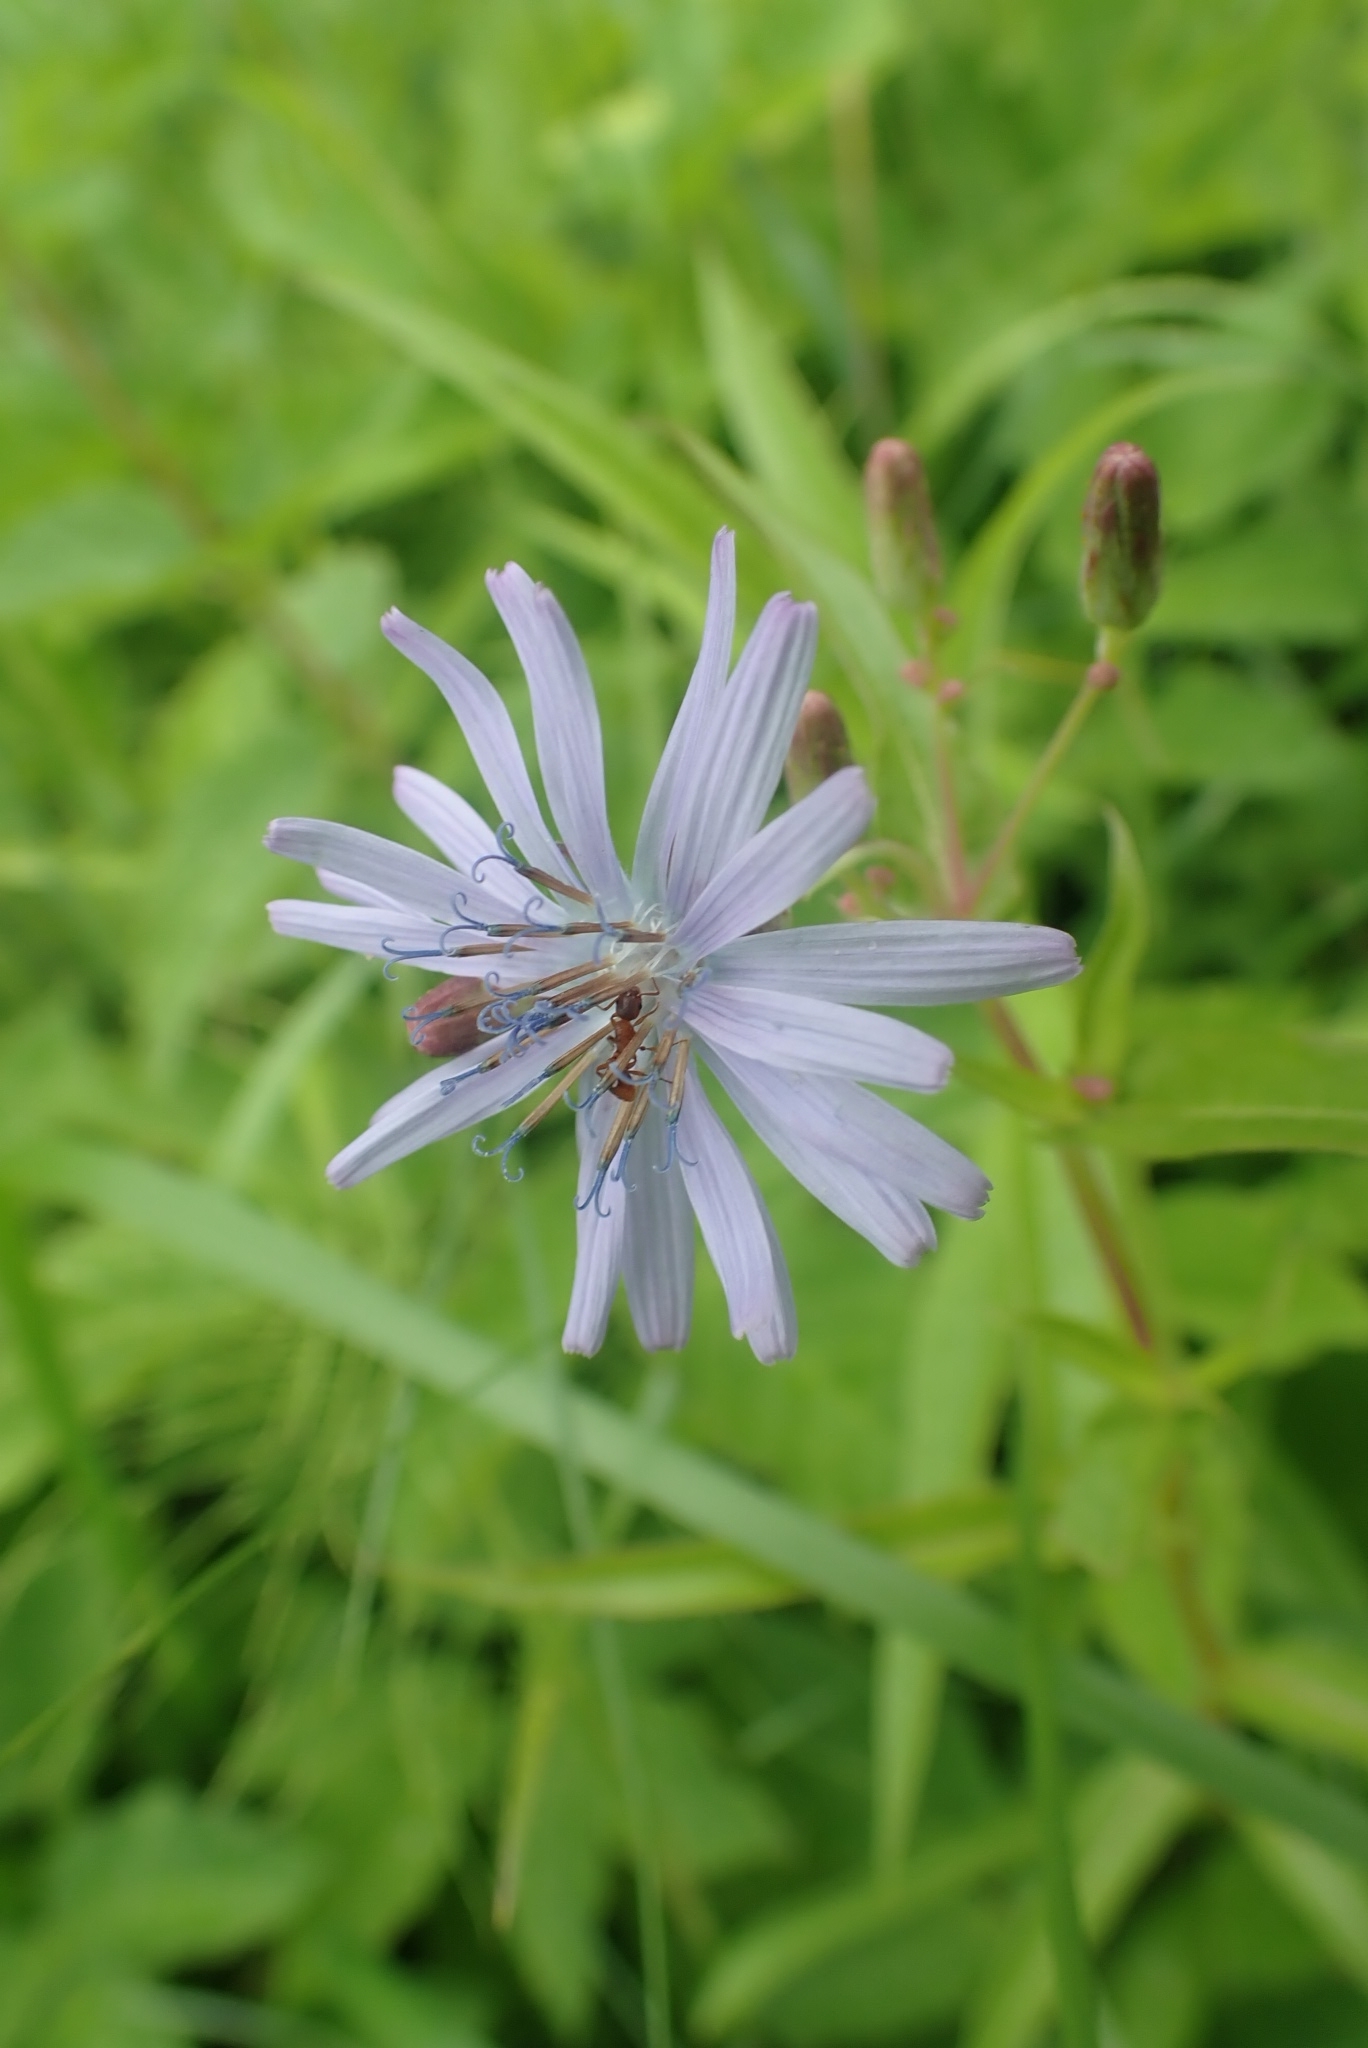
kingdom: Plantae
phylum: Tracheophyta
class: Magnoliopsida
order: Asterales
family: Asteraceae
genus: Lactuca
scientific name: Lactuca sibirica
